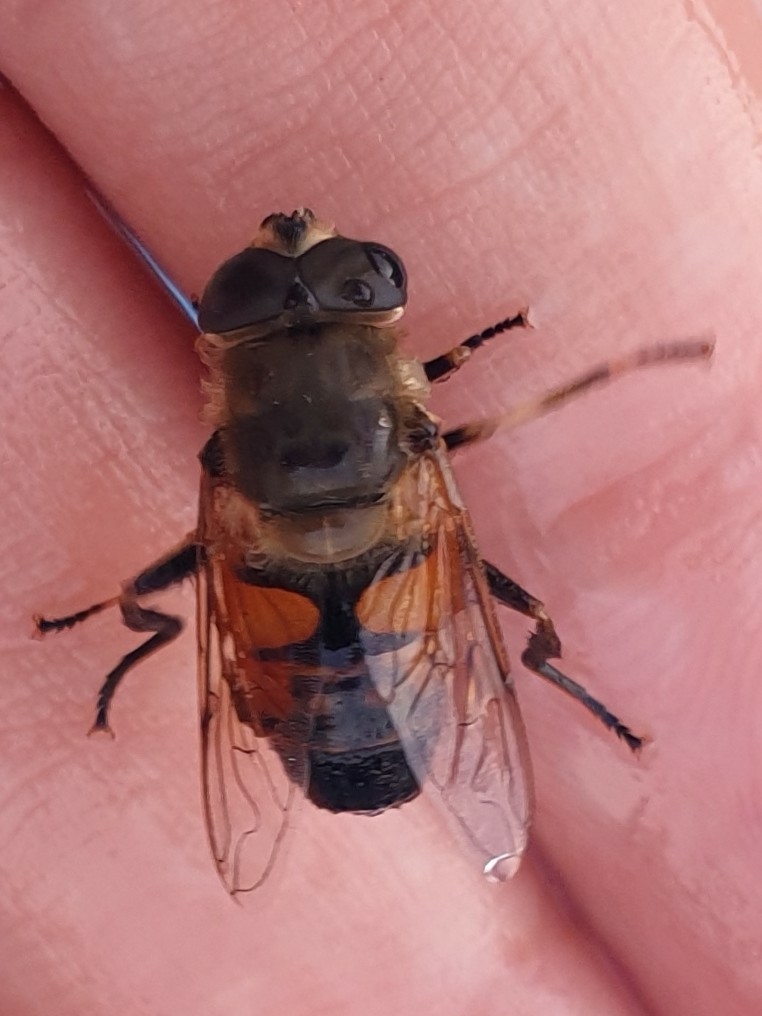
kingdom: Animalia
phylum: Arthropoda
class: Insecta
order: Diptera
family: Syrphidae
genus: Eristalis
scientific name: Eristalis tenax
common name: Drone fly
